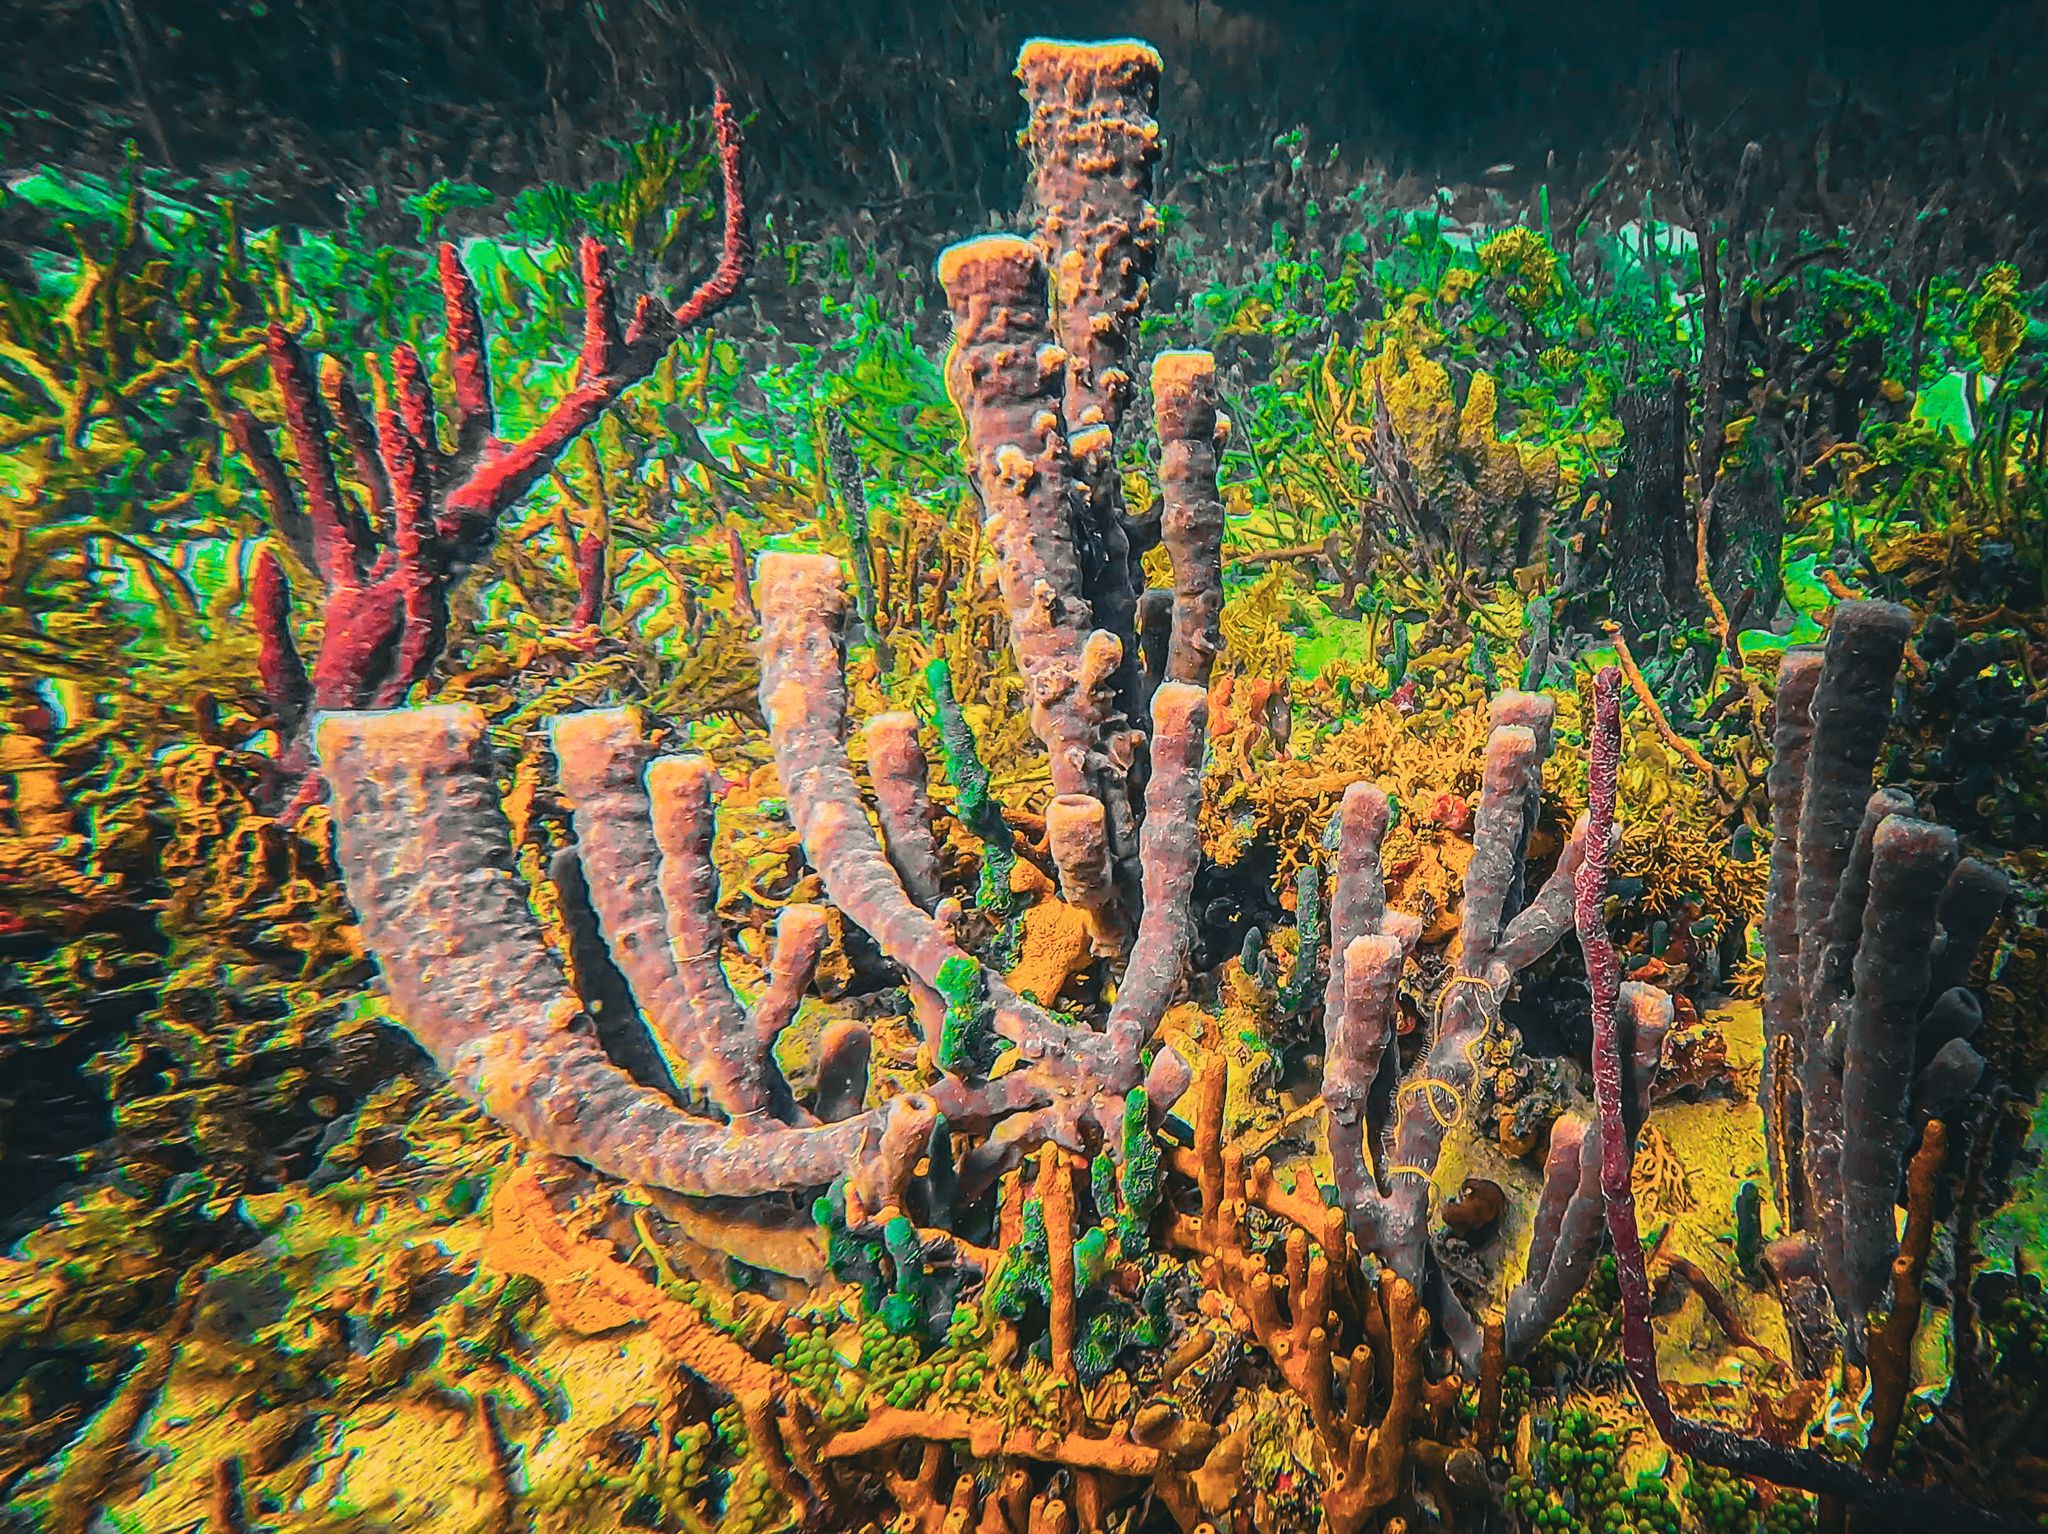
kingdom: Animalia
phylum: Porifera
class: Demospongiae
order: Verongiida
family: Aplysinidae
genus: Aplysina
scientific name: Aplysina archeri
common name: Stove-pipe sponge
